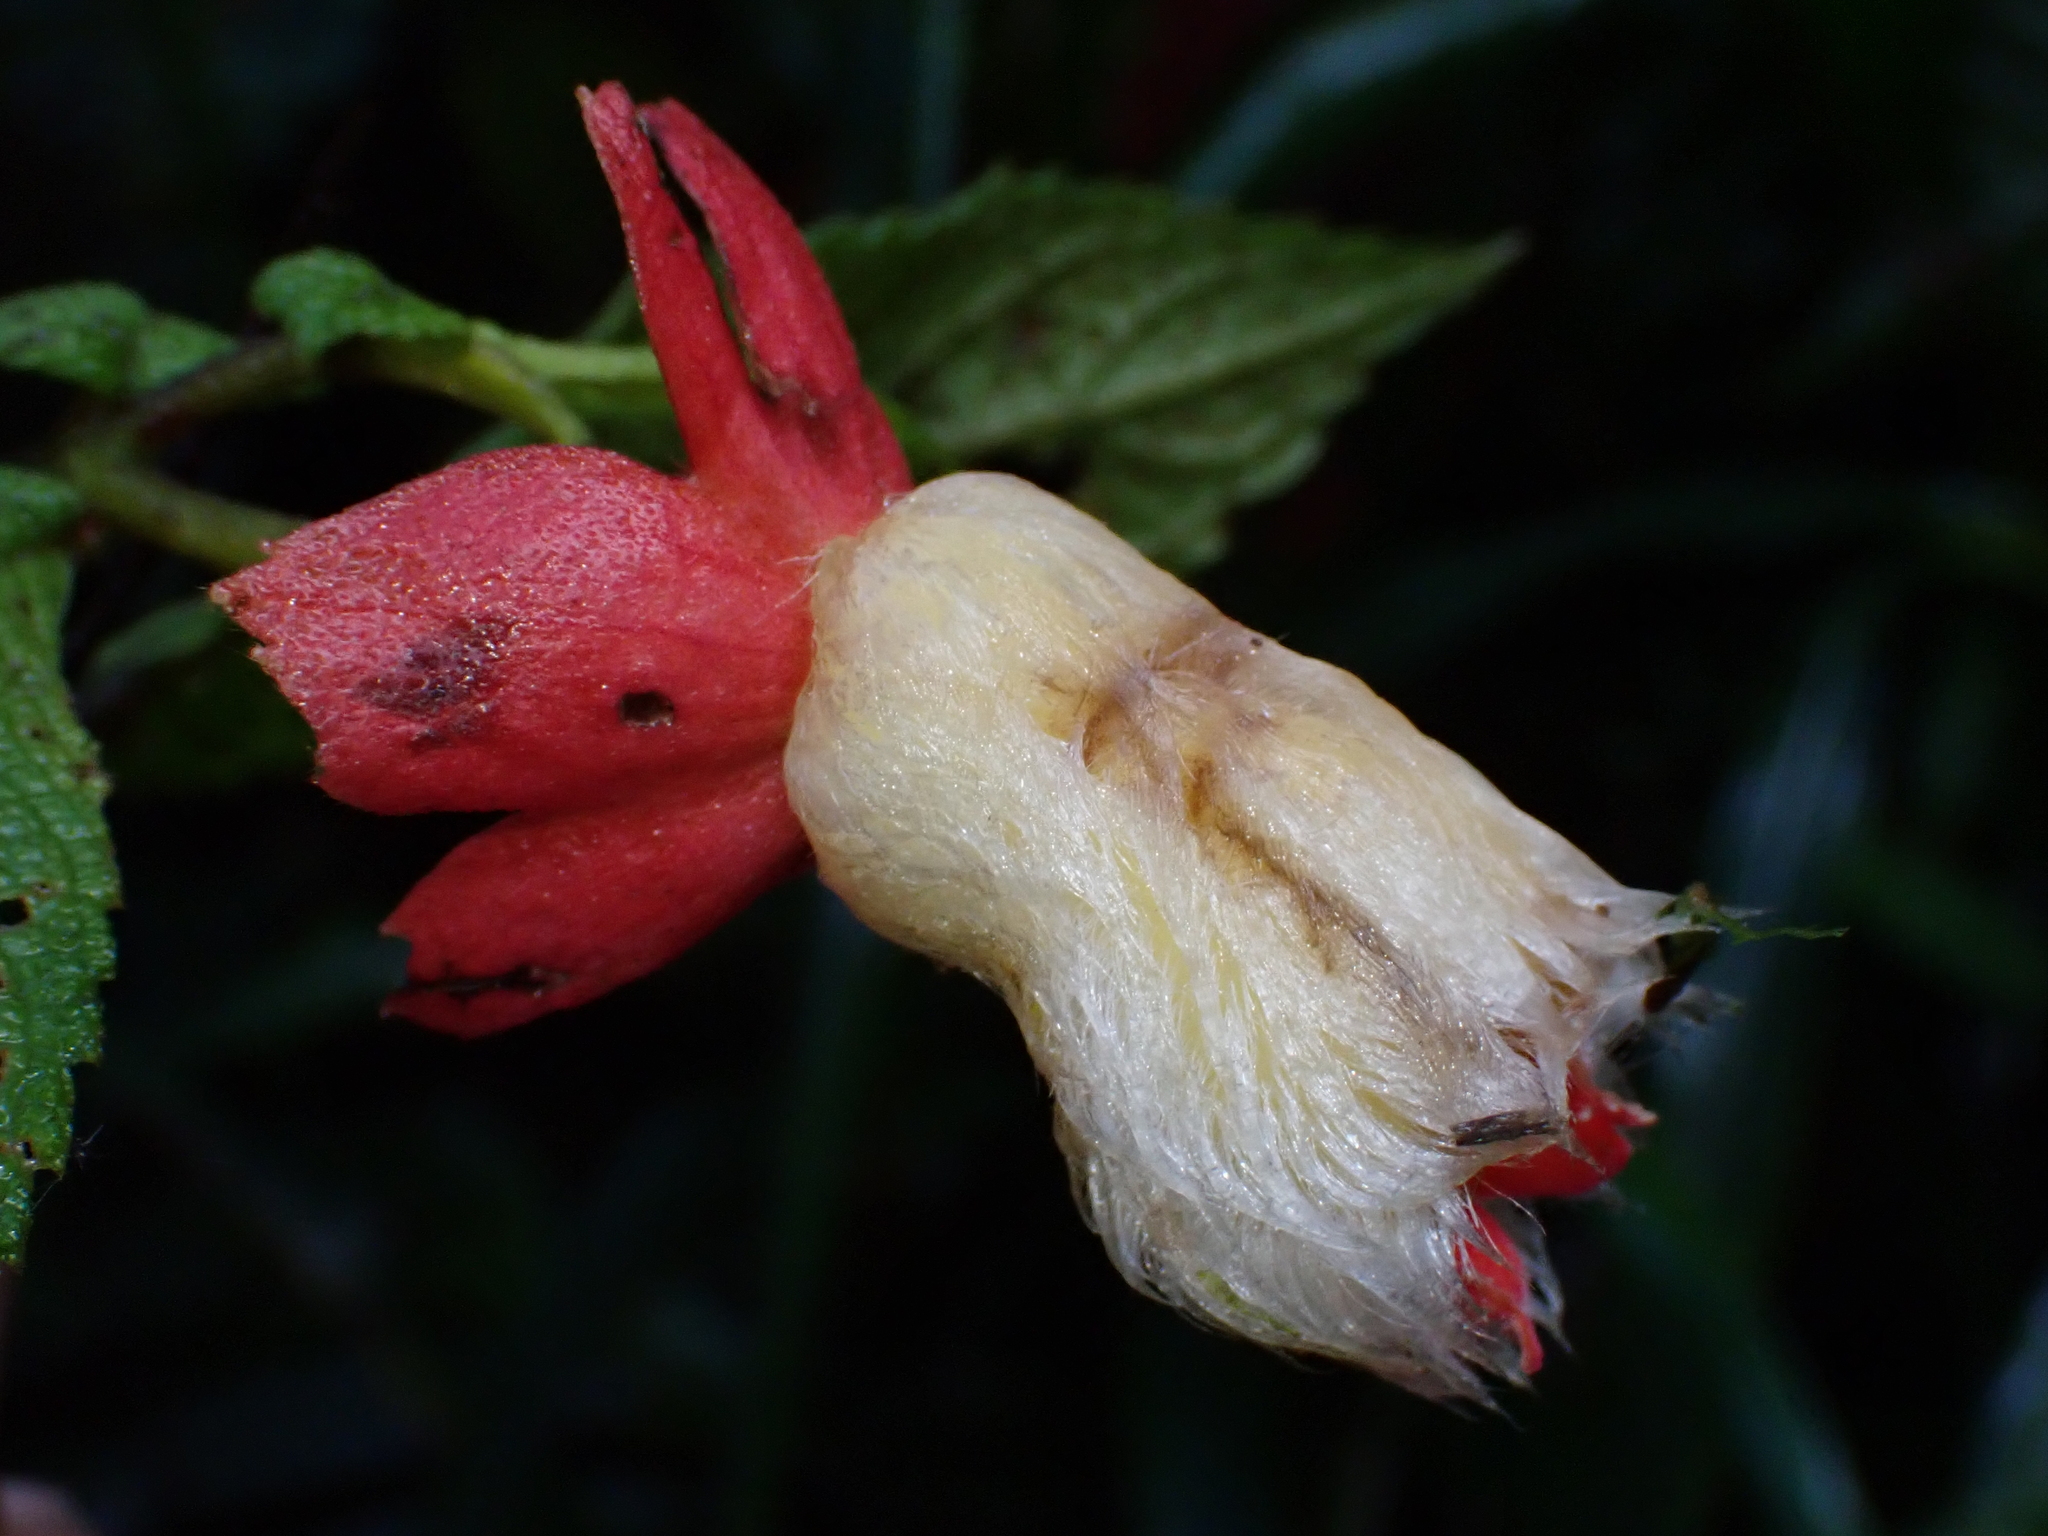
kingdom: Plantae
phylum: Tracheophyta
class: Magnoliopsida
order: Lamiales
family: Gesneriaceae
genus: Kohleria
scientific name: Kohleria hypertrichosa
